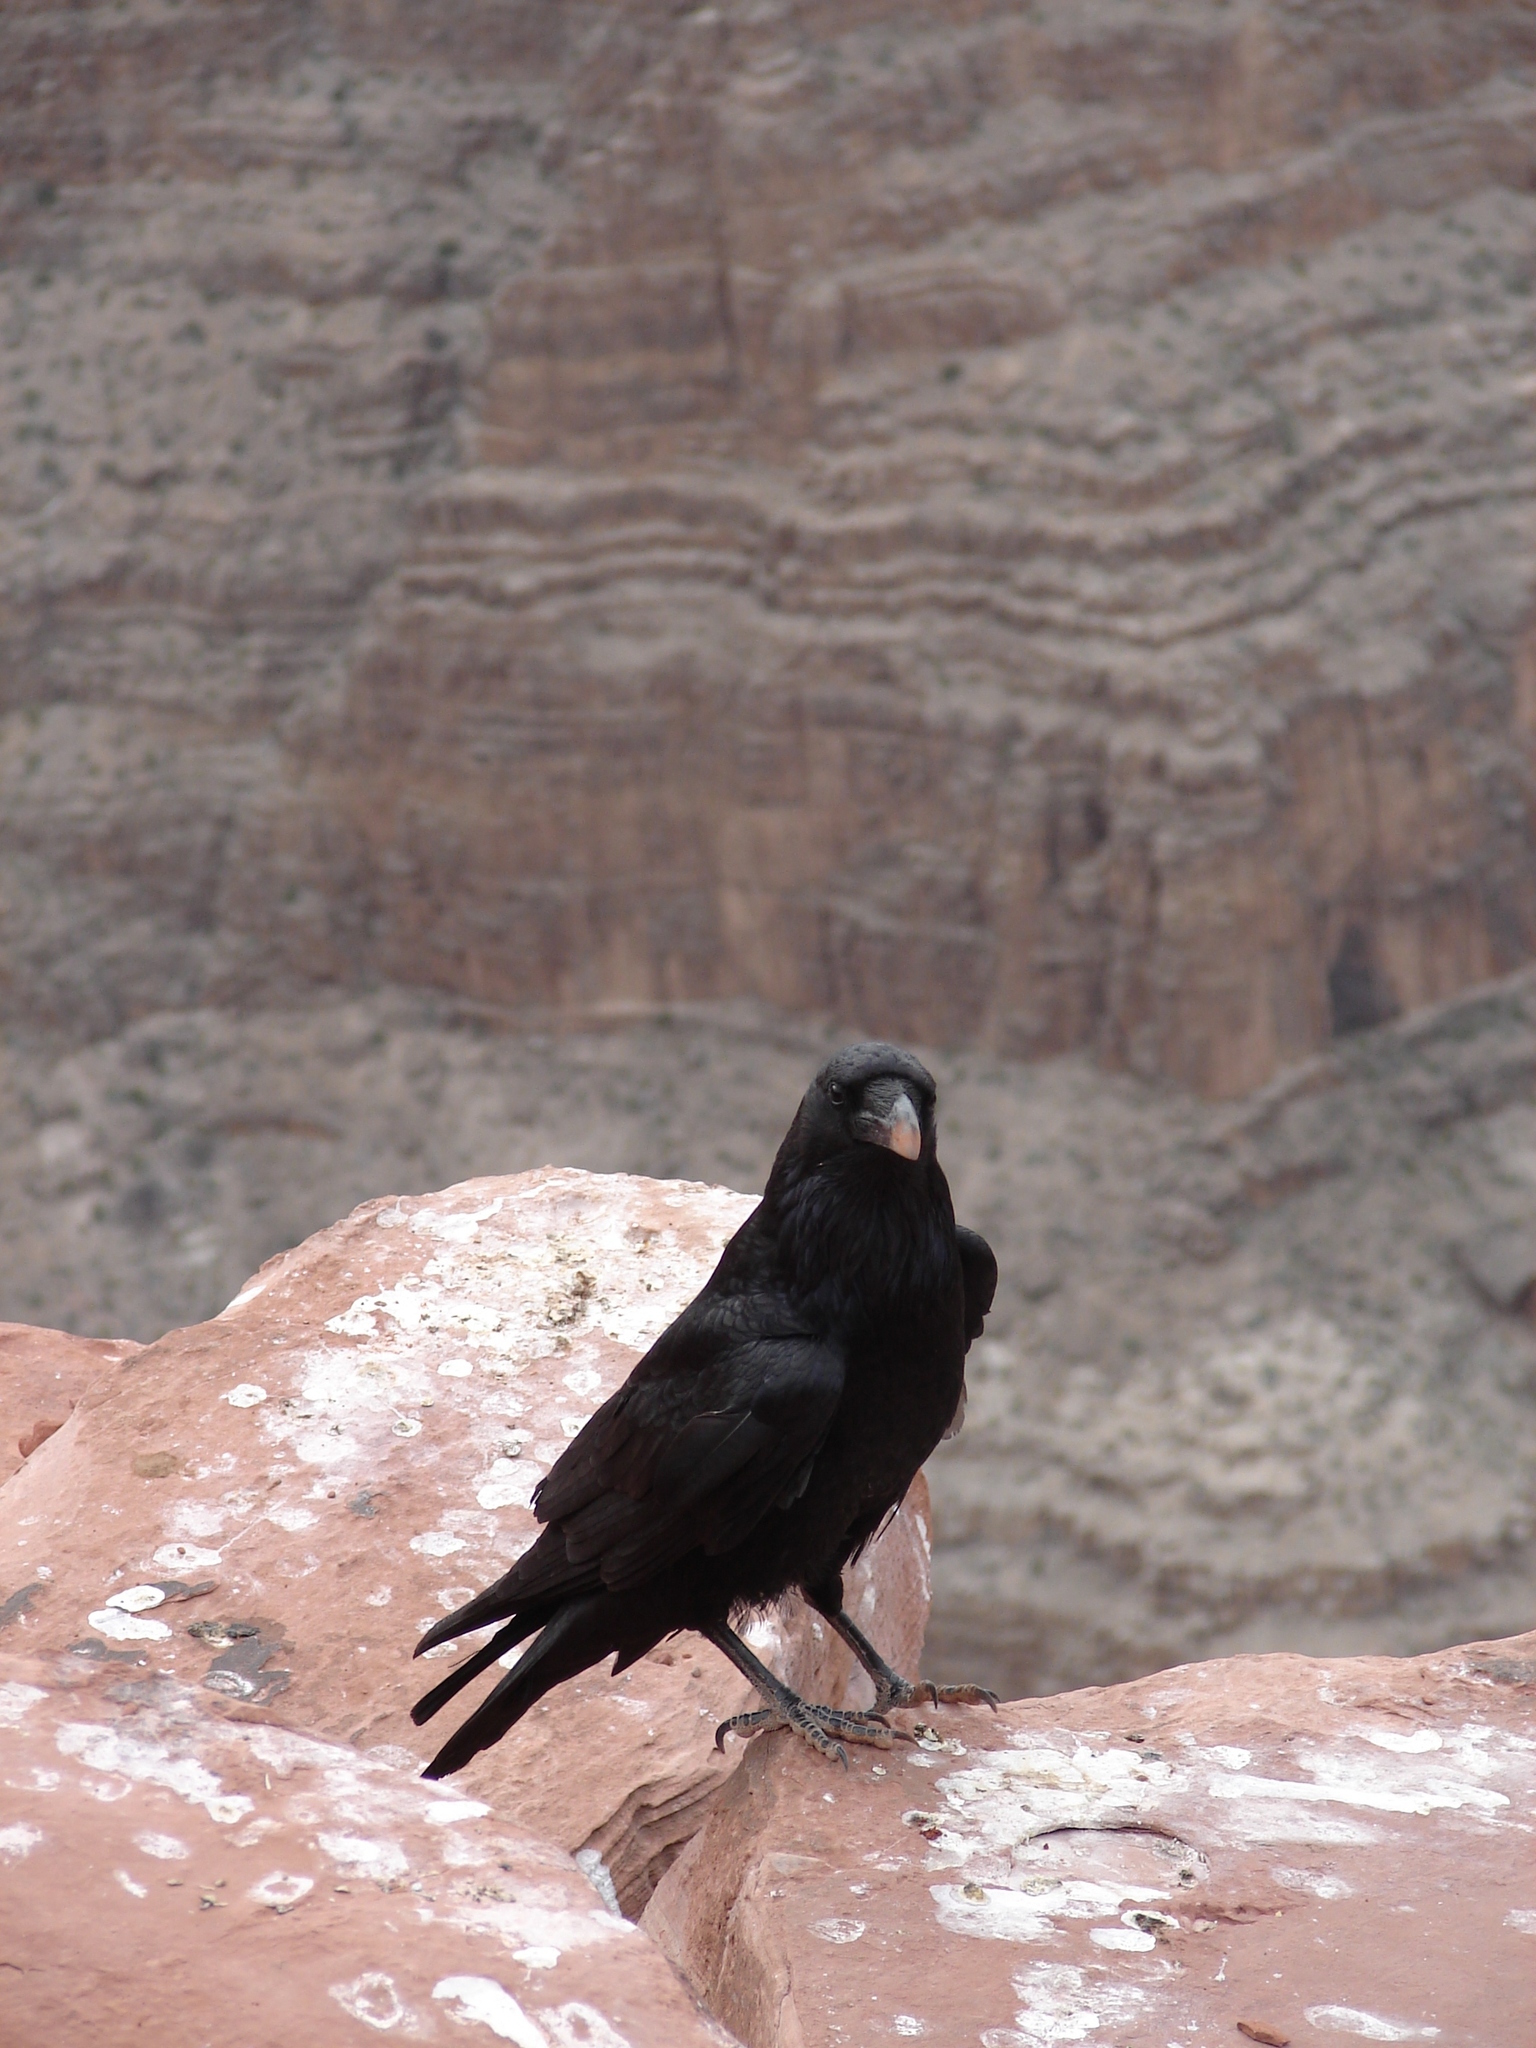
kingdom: Animalia
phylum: Chordata
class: Aves
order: Passeriformes
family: Corvidae
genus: Corvus
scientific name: Corvus corax
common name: Common raven
